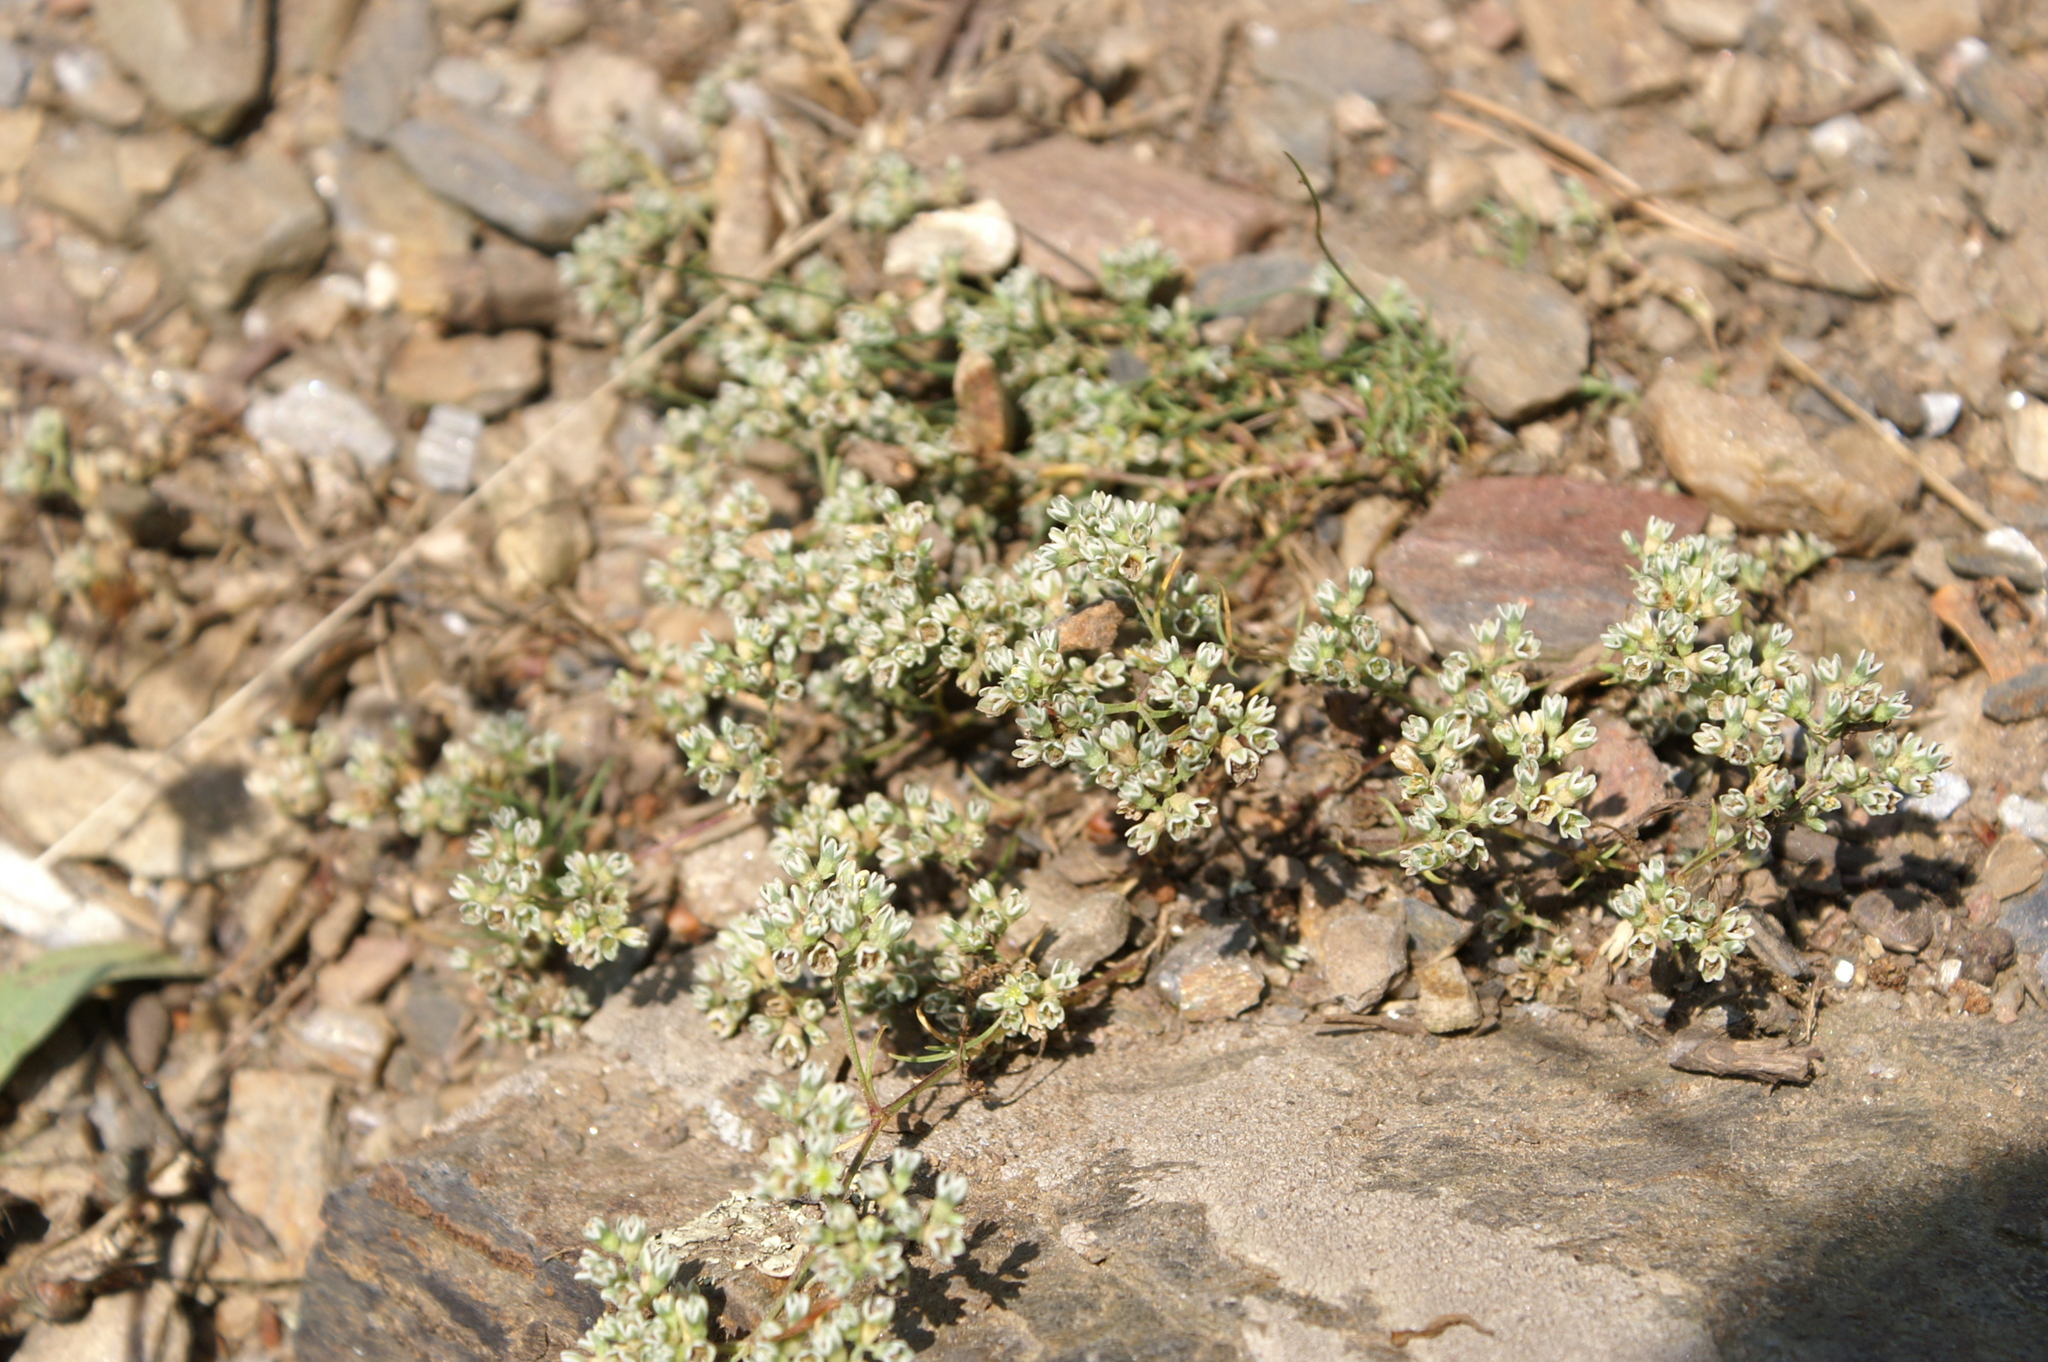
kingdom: Plantae
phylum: Tracheophyta
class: Magnoliopsida
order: Caryophyllales
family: Caryophyllaceae
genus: Scleranthus
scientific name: Scleranthus perennis
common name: Perennial knawel
